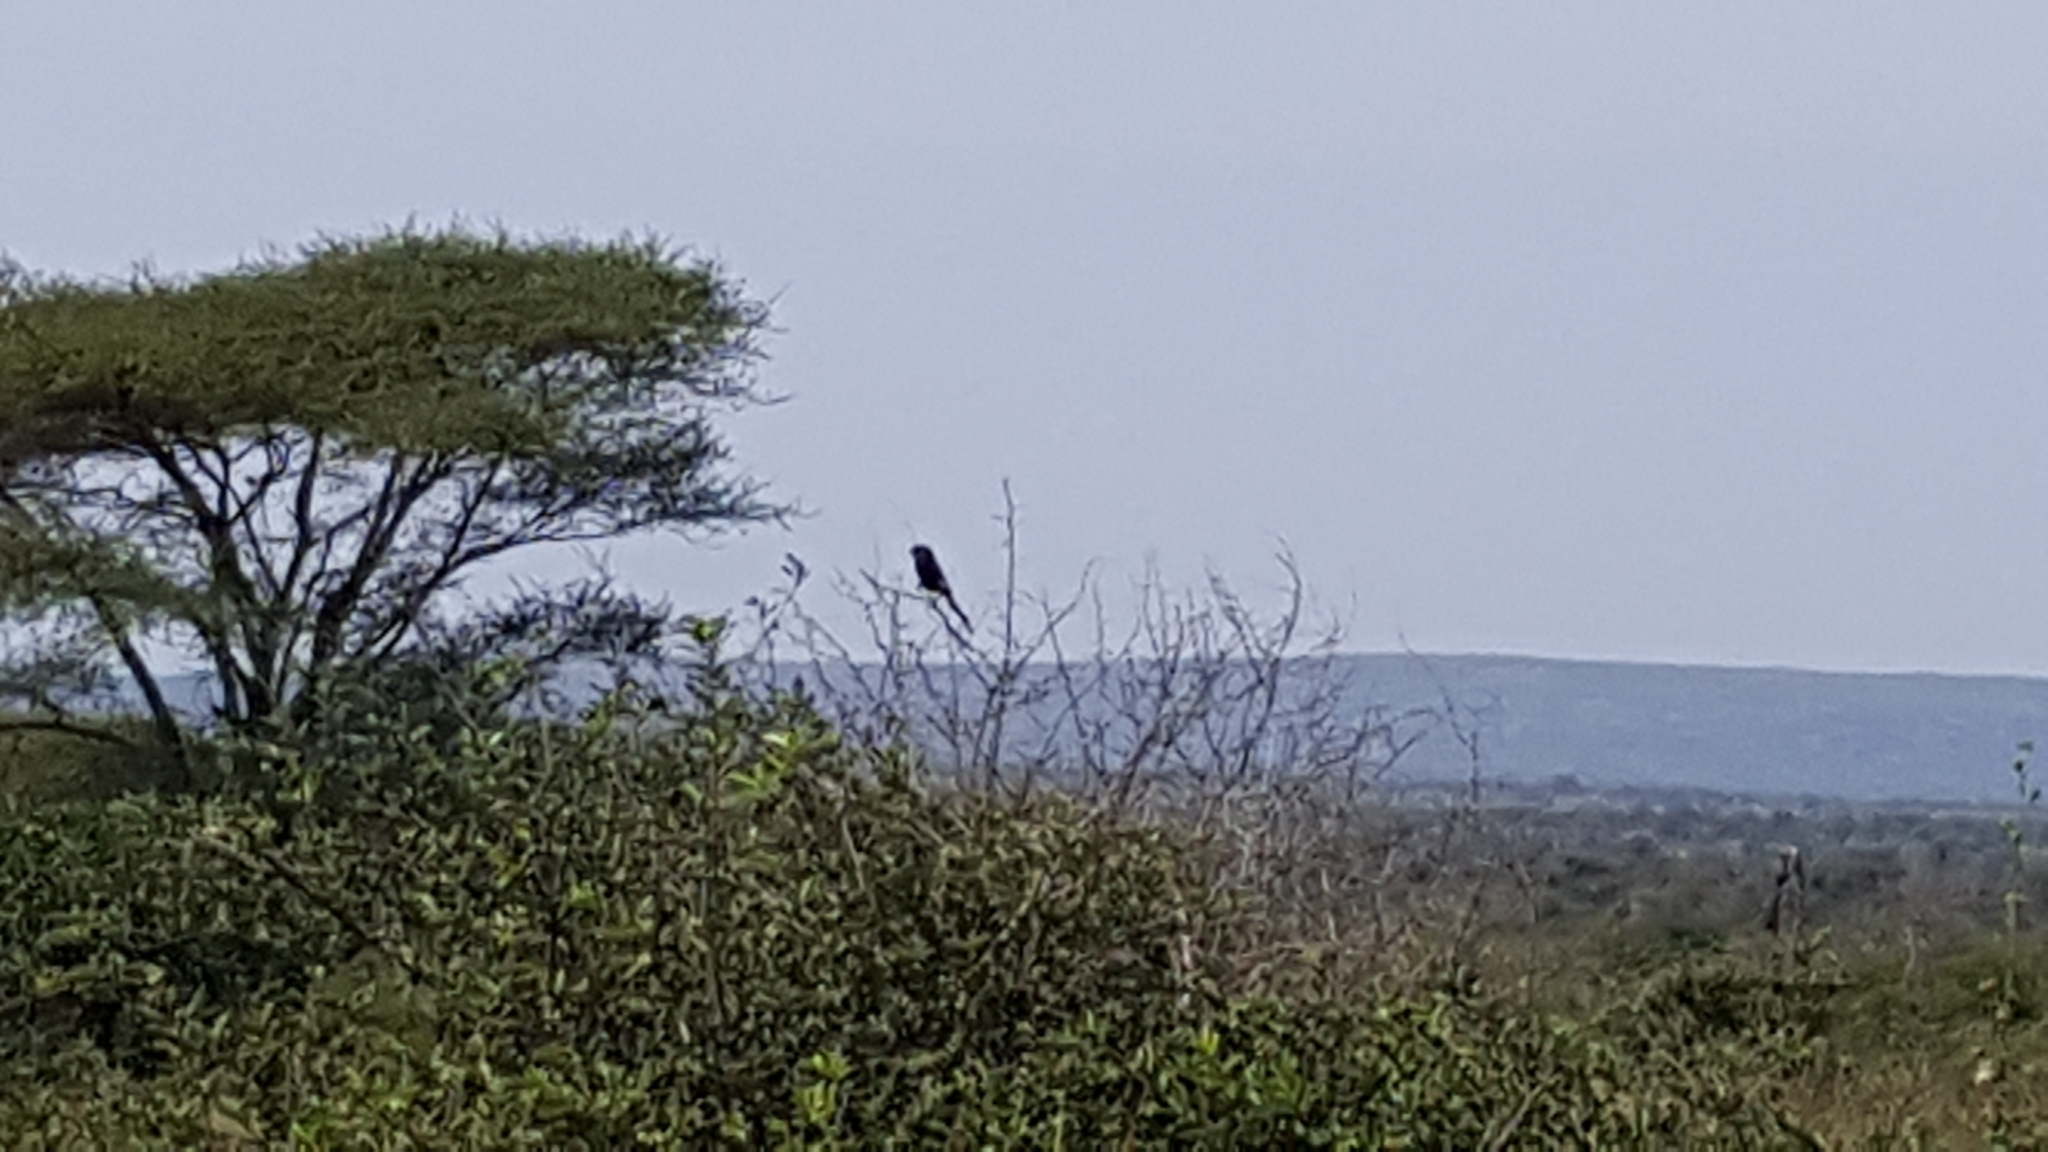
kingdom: Animalia
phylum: Chordata
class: Aves
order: Passeriformes
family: Laniidae
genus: Urolestes
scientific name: Urolestes melanoleucus
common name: Magpie shrike
